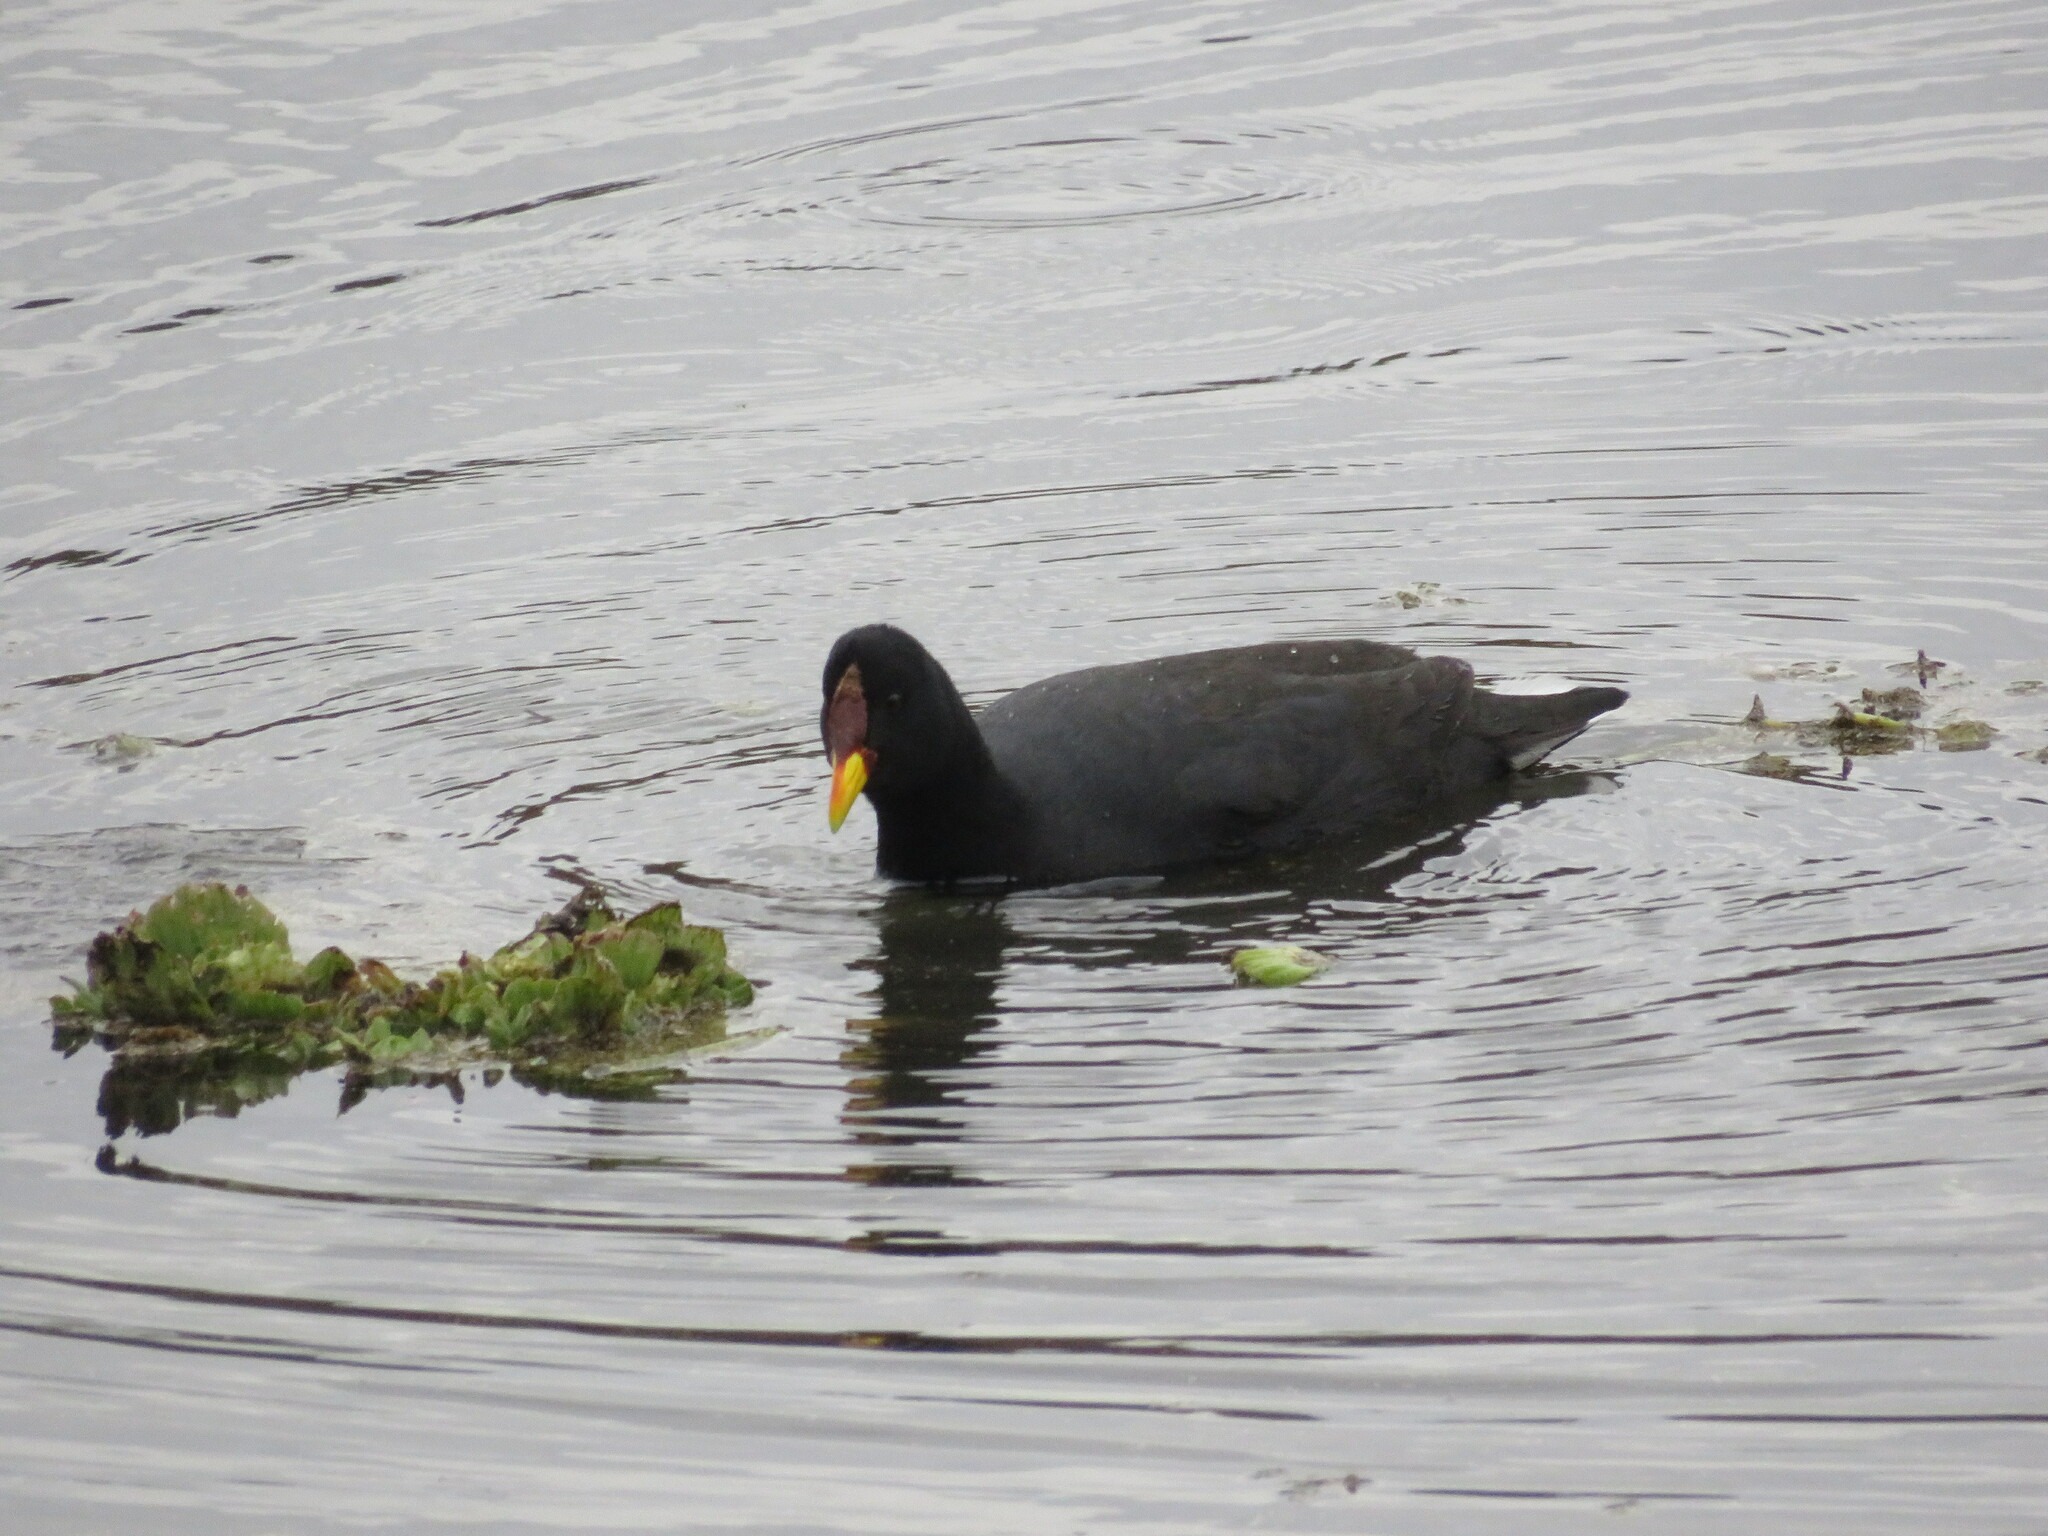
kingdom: Animalia
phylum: Chordata
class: Aves
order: Gruiformes
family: Rallidae
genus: Fulica
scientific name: Fulica rufifrons
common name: Red-fronted coot
